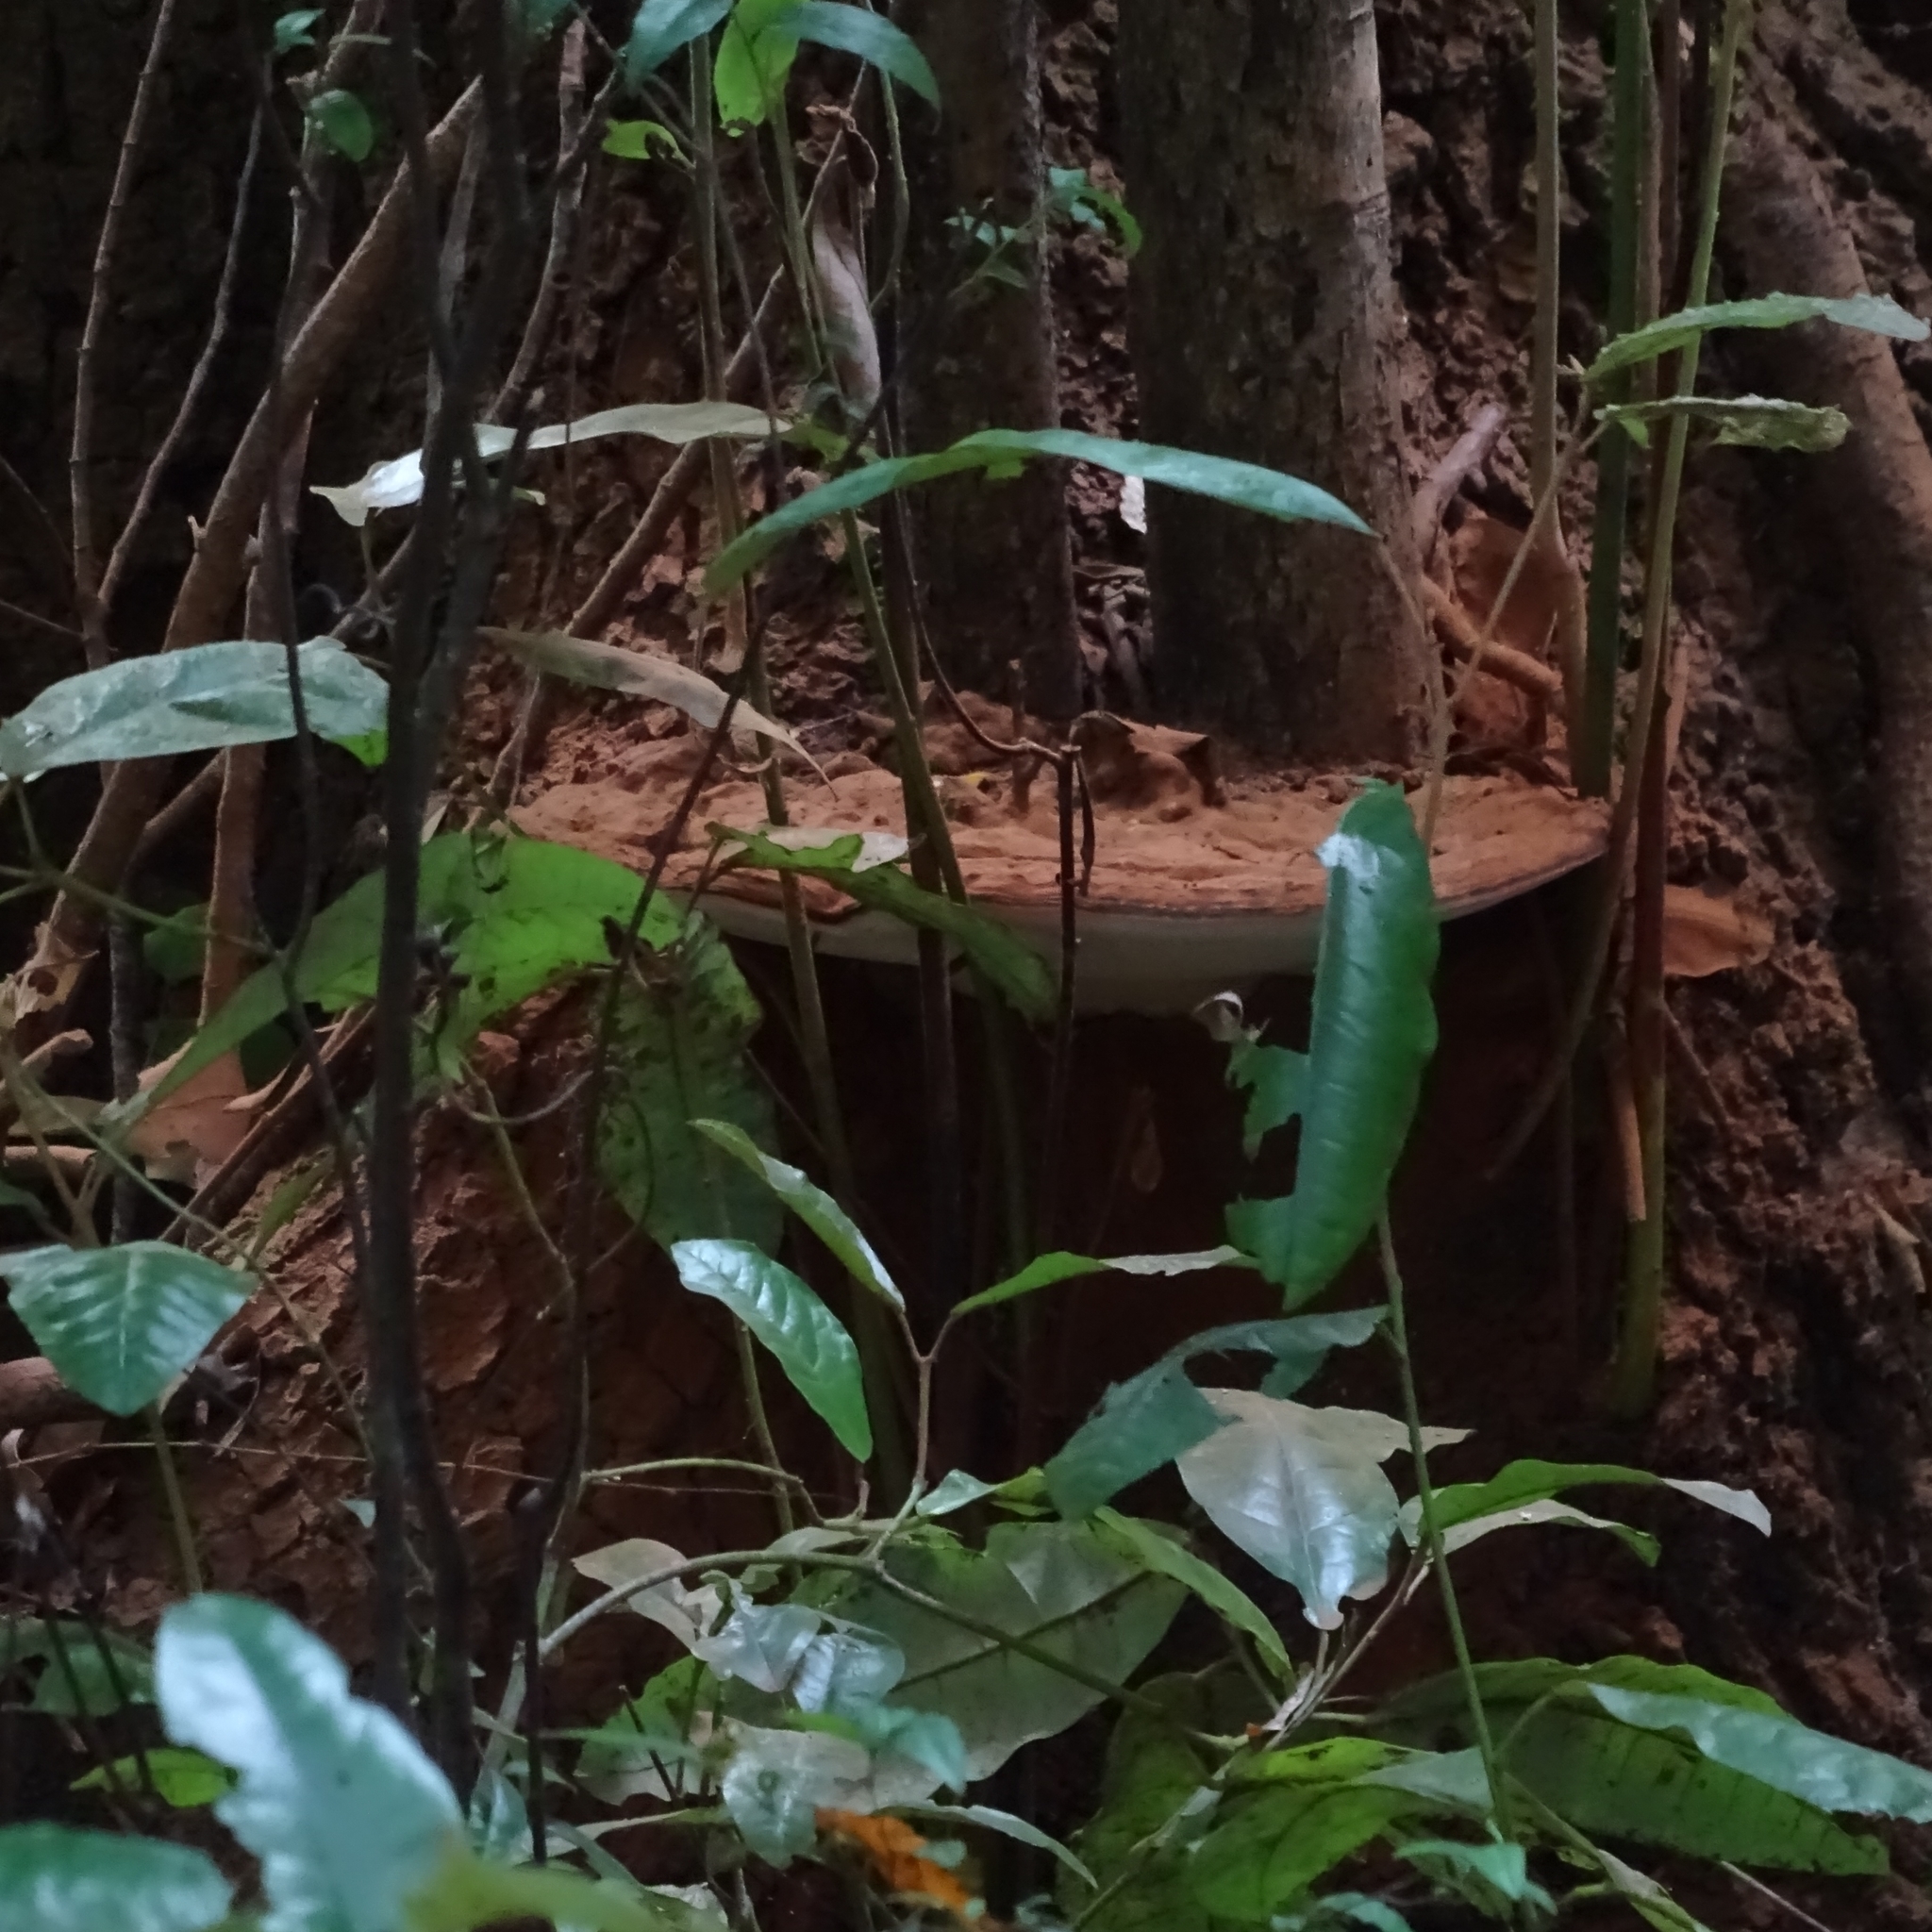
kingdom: Fungi
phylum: Basidiomycota
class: Agaricomycetes
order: Polyporales
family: Polyporaceae
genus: Ganoderma
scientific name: Ganoderma australe
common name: Southern bracket
